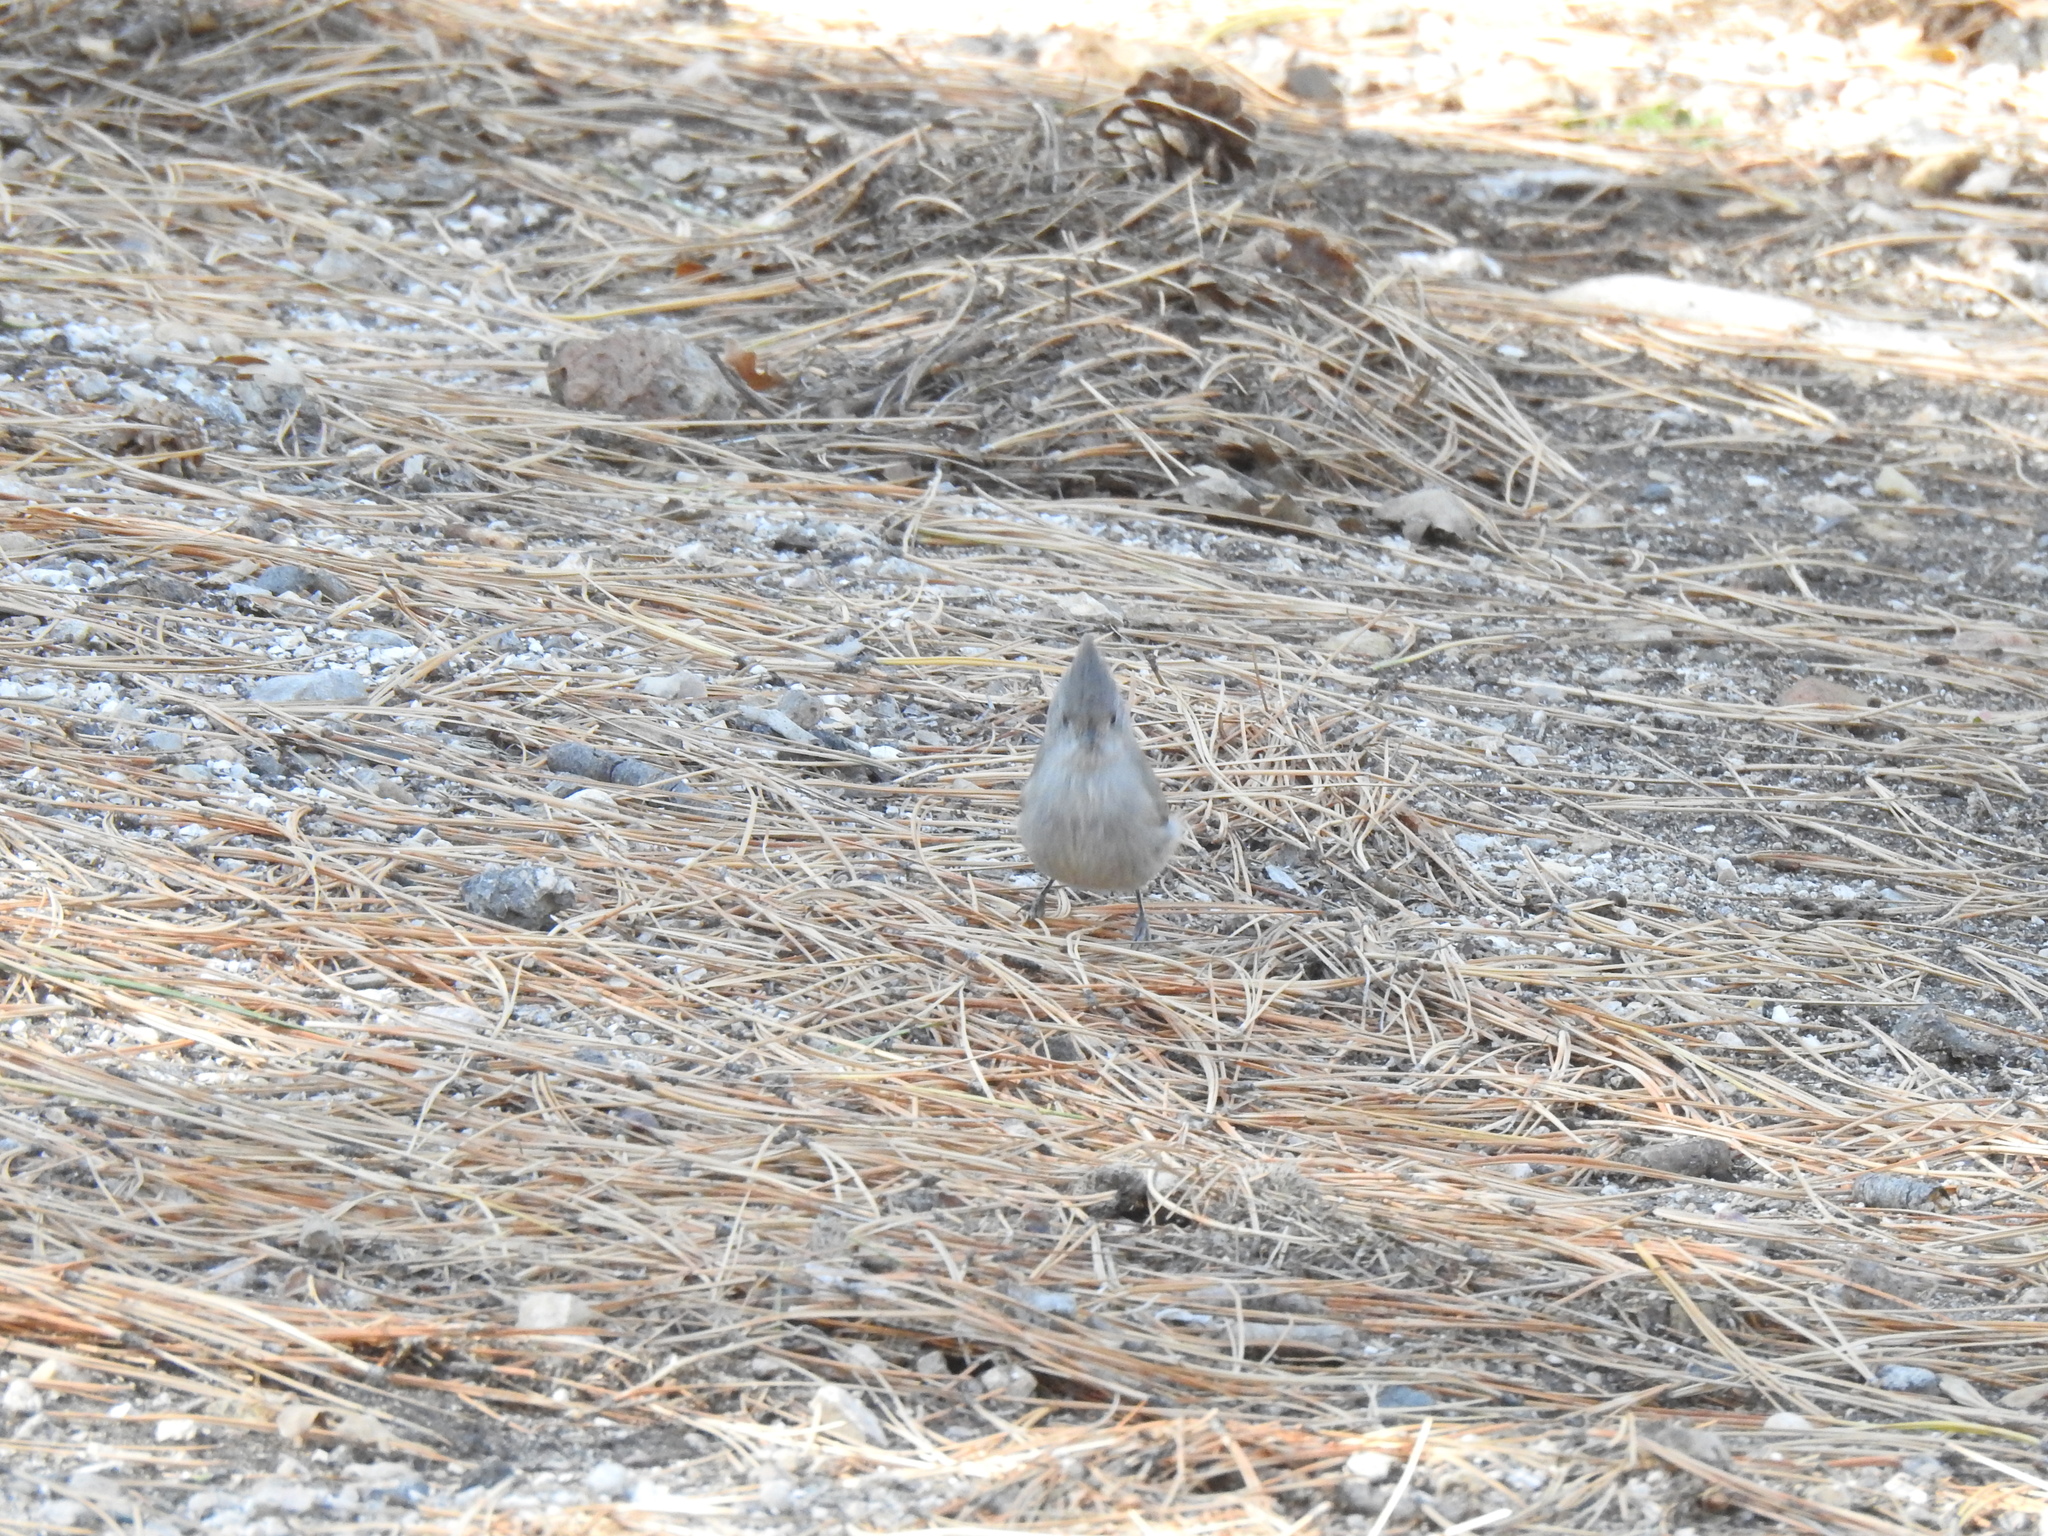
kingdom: Animalia
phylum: Chordata
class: Aves
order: Passeriformes
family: Paridae
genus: Baeolophus
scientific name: Baeolophus ridgwayi
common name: Juniper titmouse
